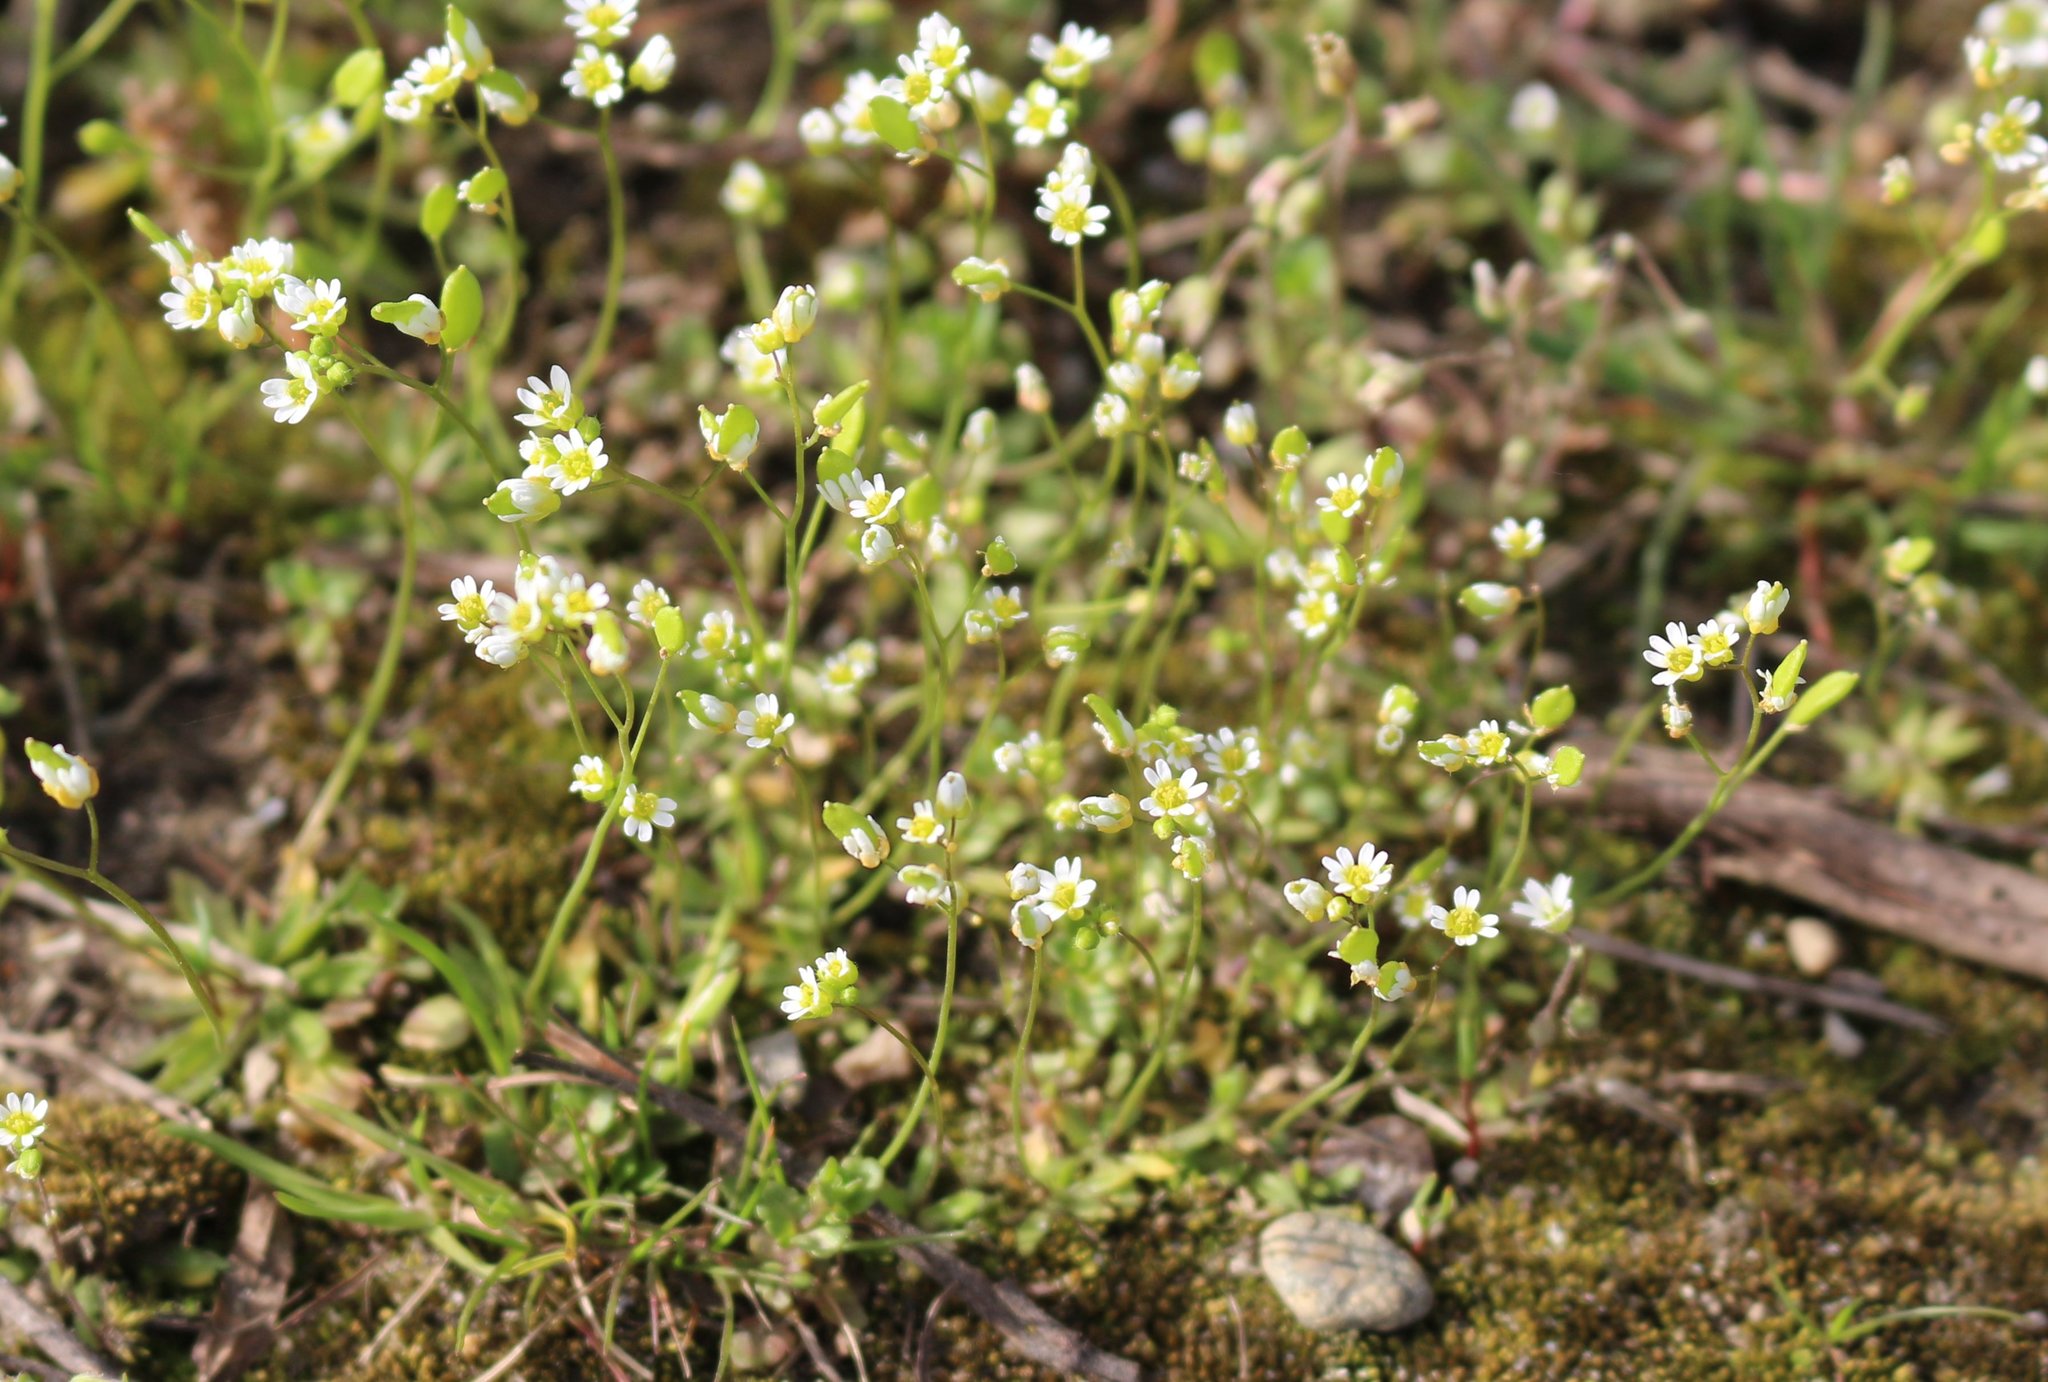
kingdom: Plantae
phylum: Tracheophyta
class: Magnoliopsida
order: Brassicales
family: Brassicaceae
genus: Draba
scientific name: Draba verna
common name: Spring draba
